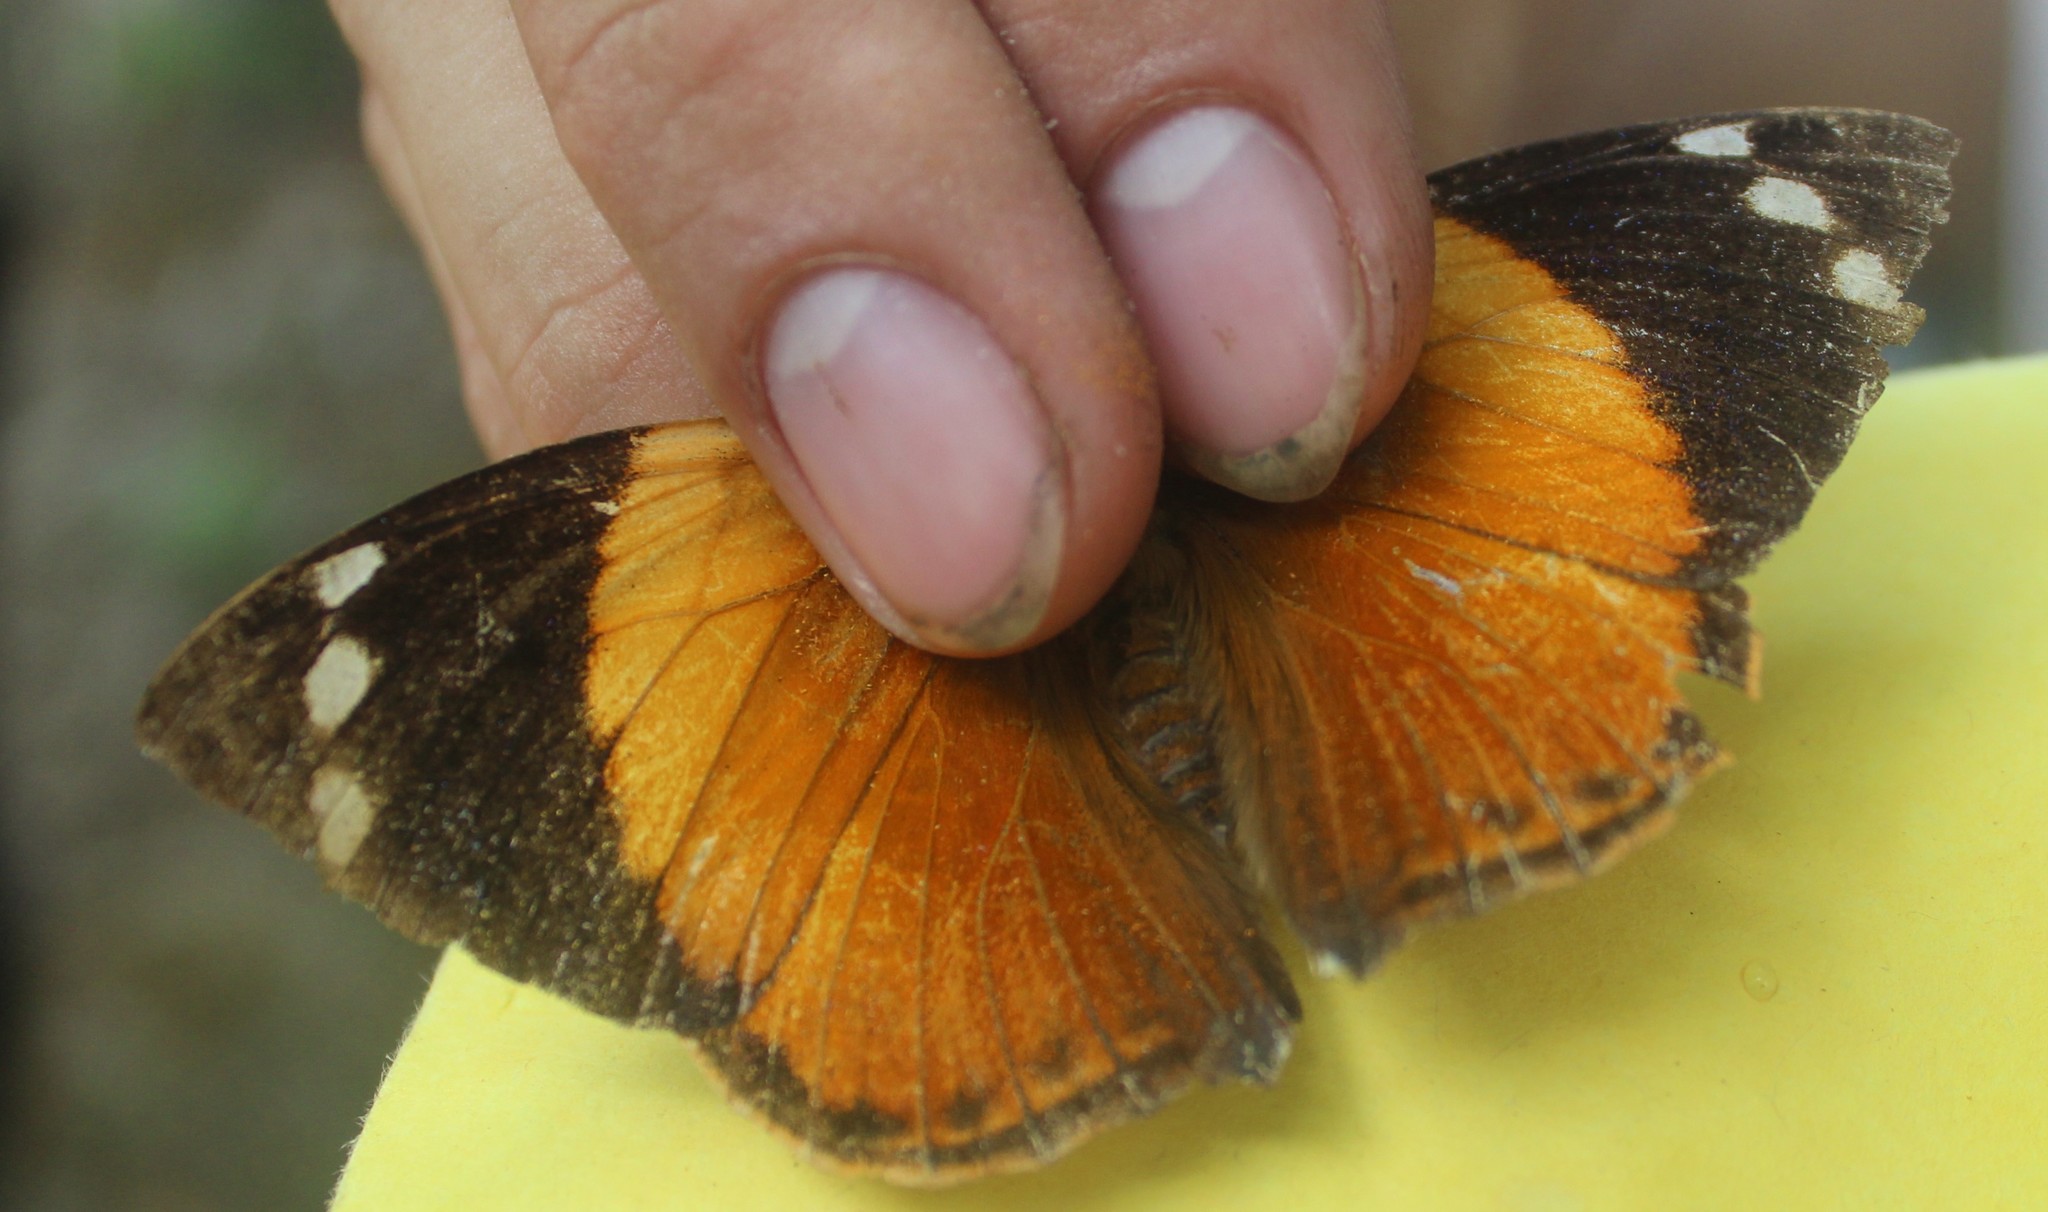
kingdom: Animalia
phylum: Arthropoda
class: Insecta
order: Lepidoptera
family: Nymphalidae
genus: Smyrna
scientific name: Smyrna blomfildia
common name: Blomfild's beauty
